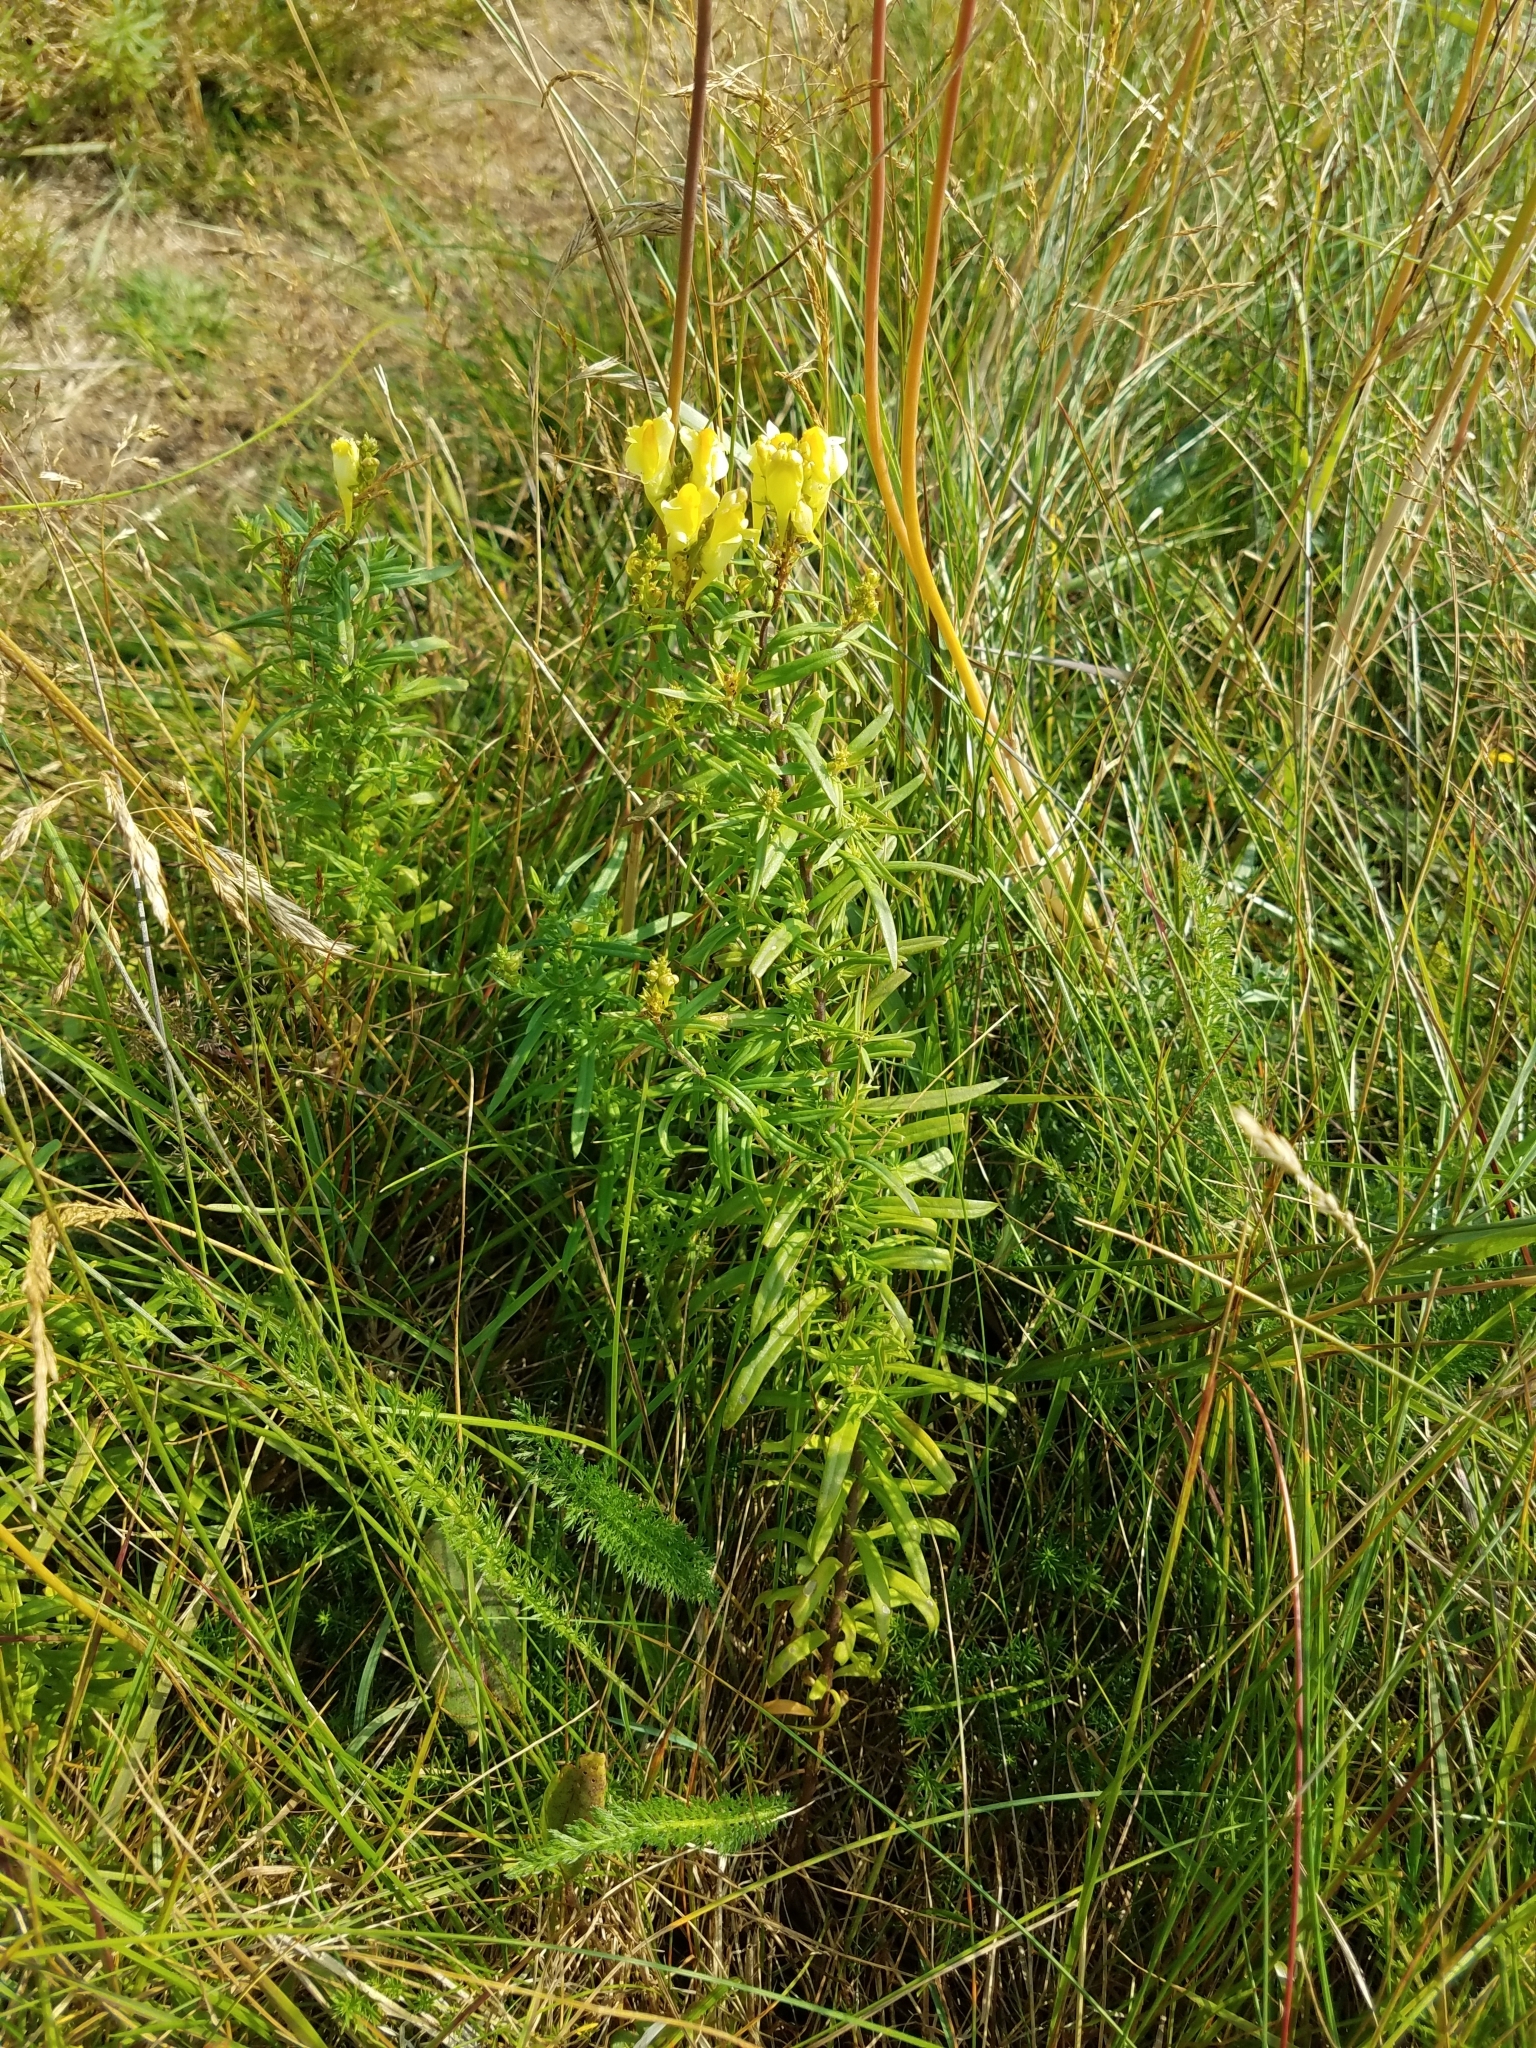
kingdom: Plantae
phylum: Tracheophyta
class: Magnoliopsida
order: Lamiales
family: Plantaginaceae
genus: Linaria
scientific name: Linaria vulgaris
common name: Butter and eggs
